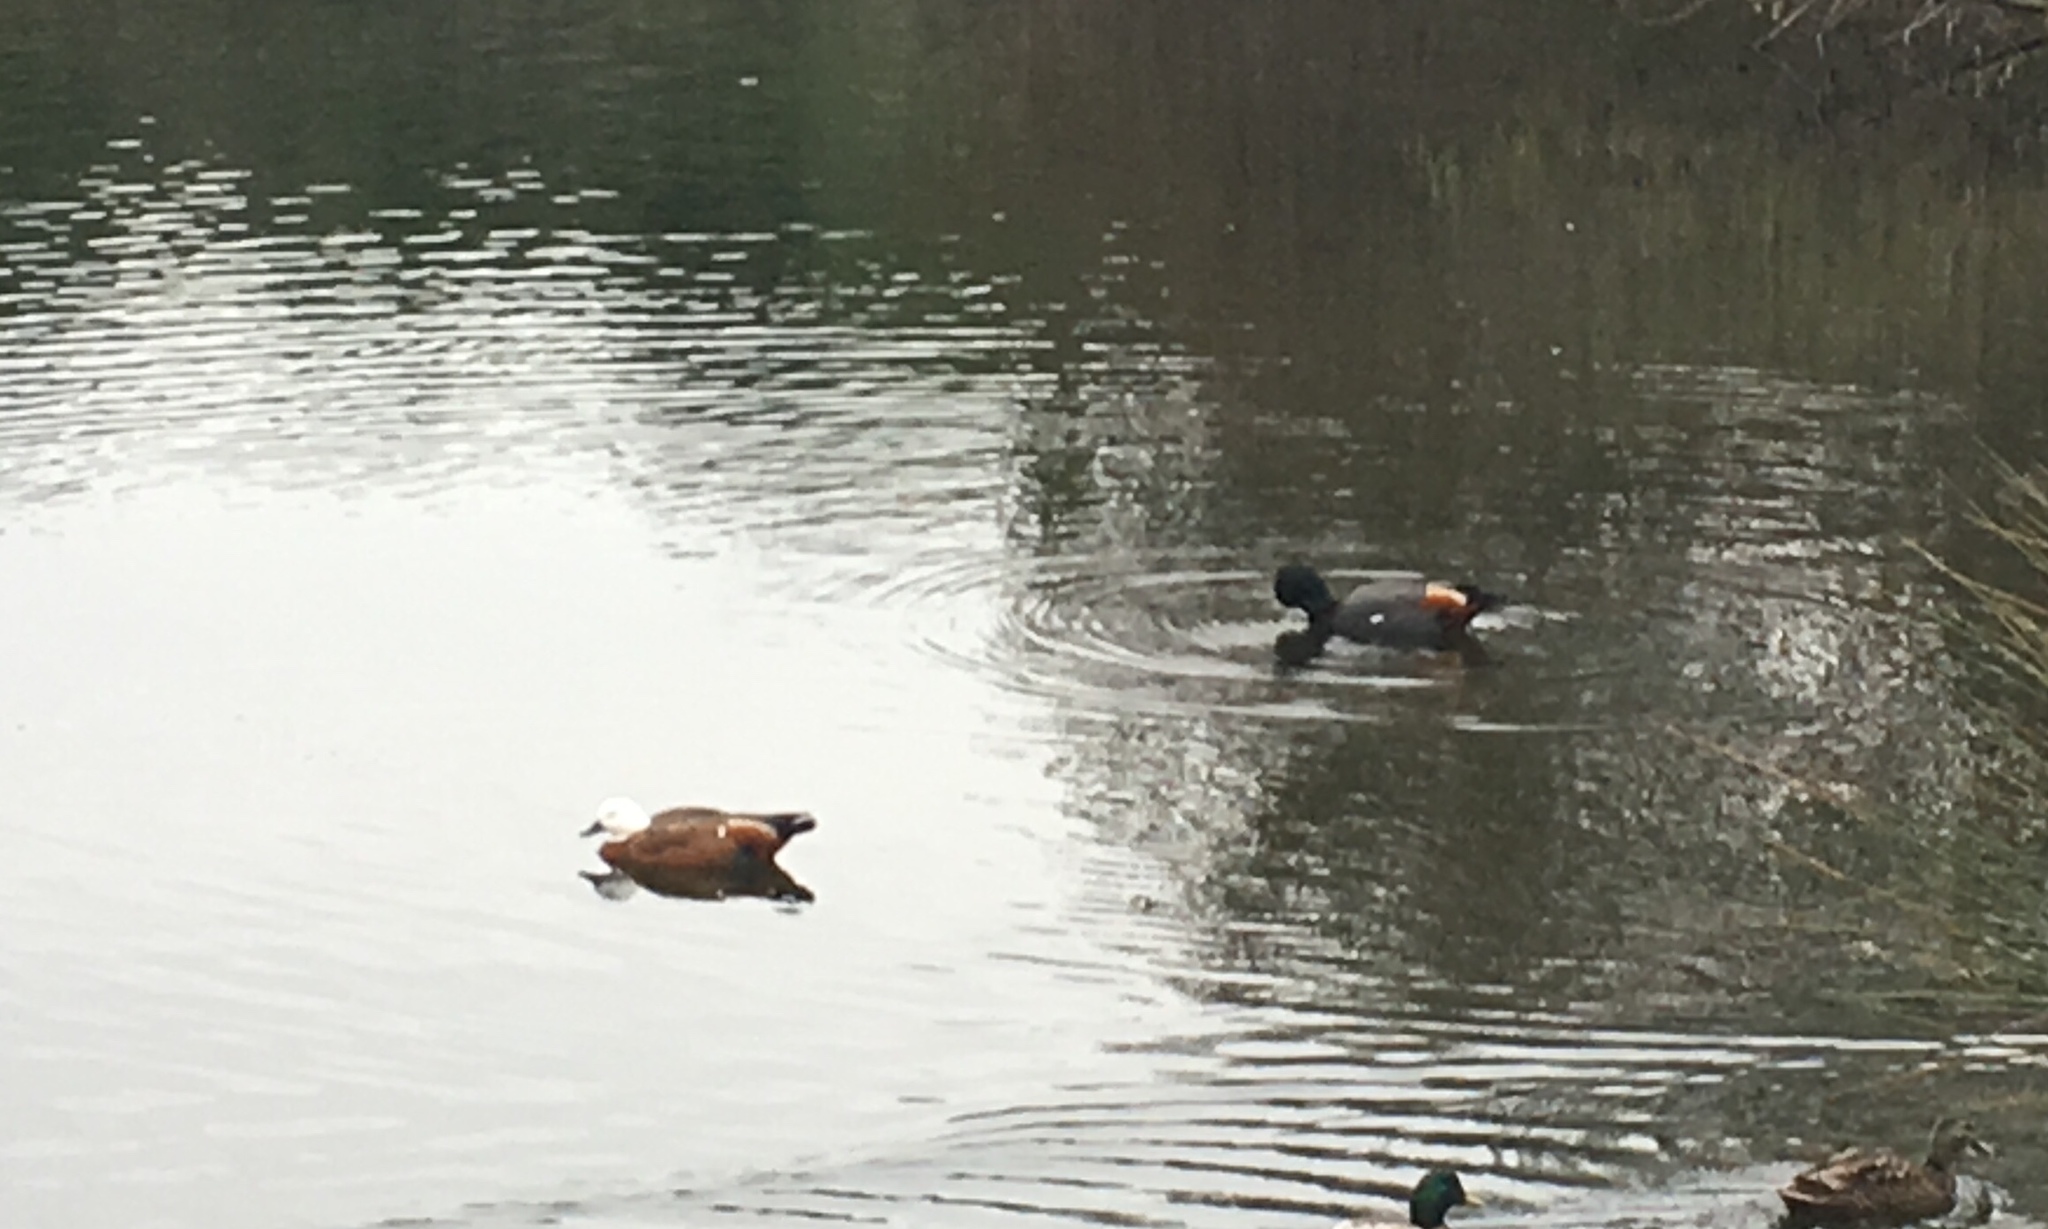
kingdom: Animalia
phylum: Chordata
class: Aves
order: Anseriformes
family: Anatidae
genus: Tadorna
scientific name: Tadorna variegata
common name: Paradise shelduck
